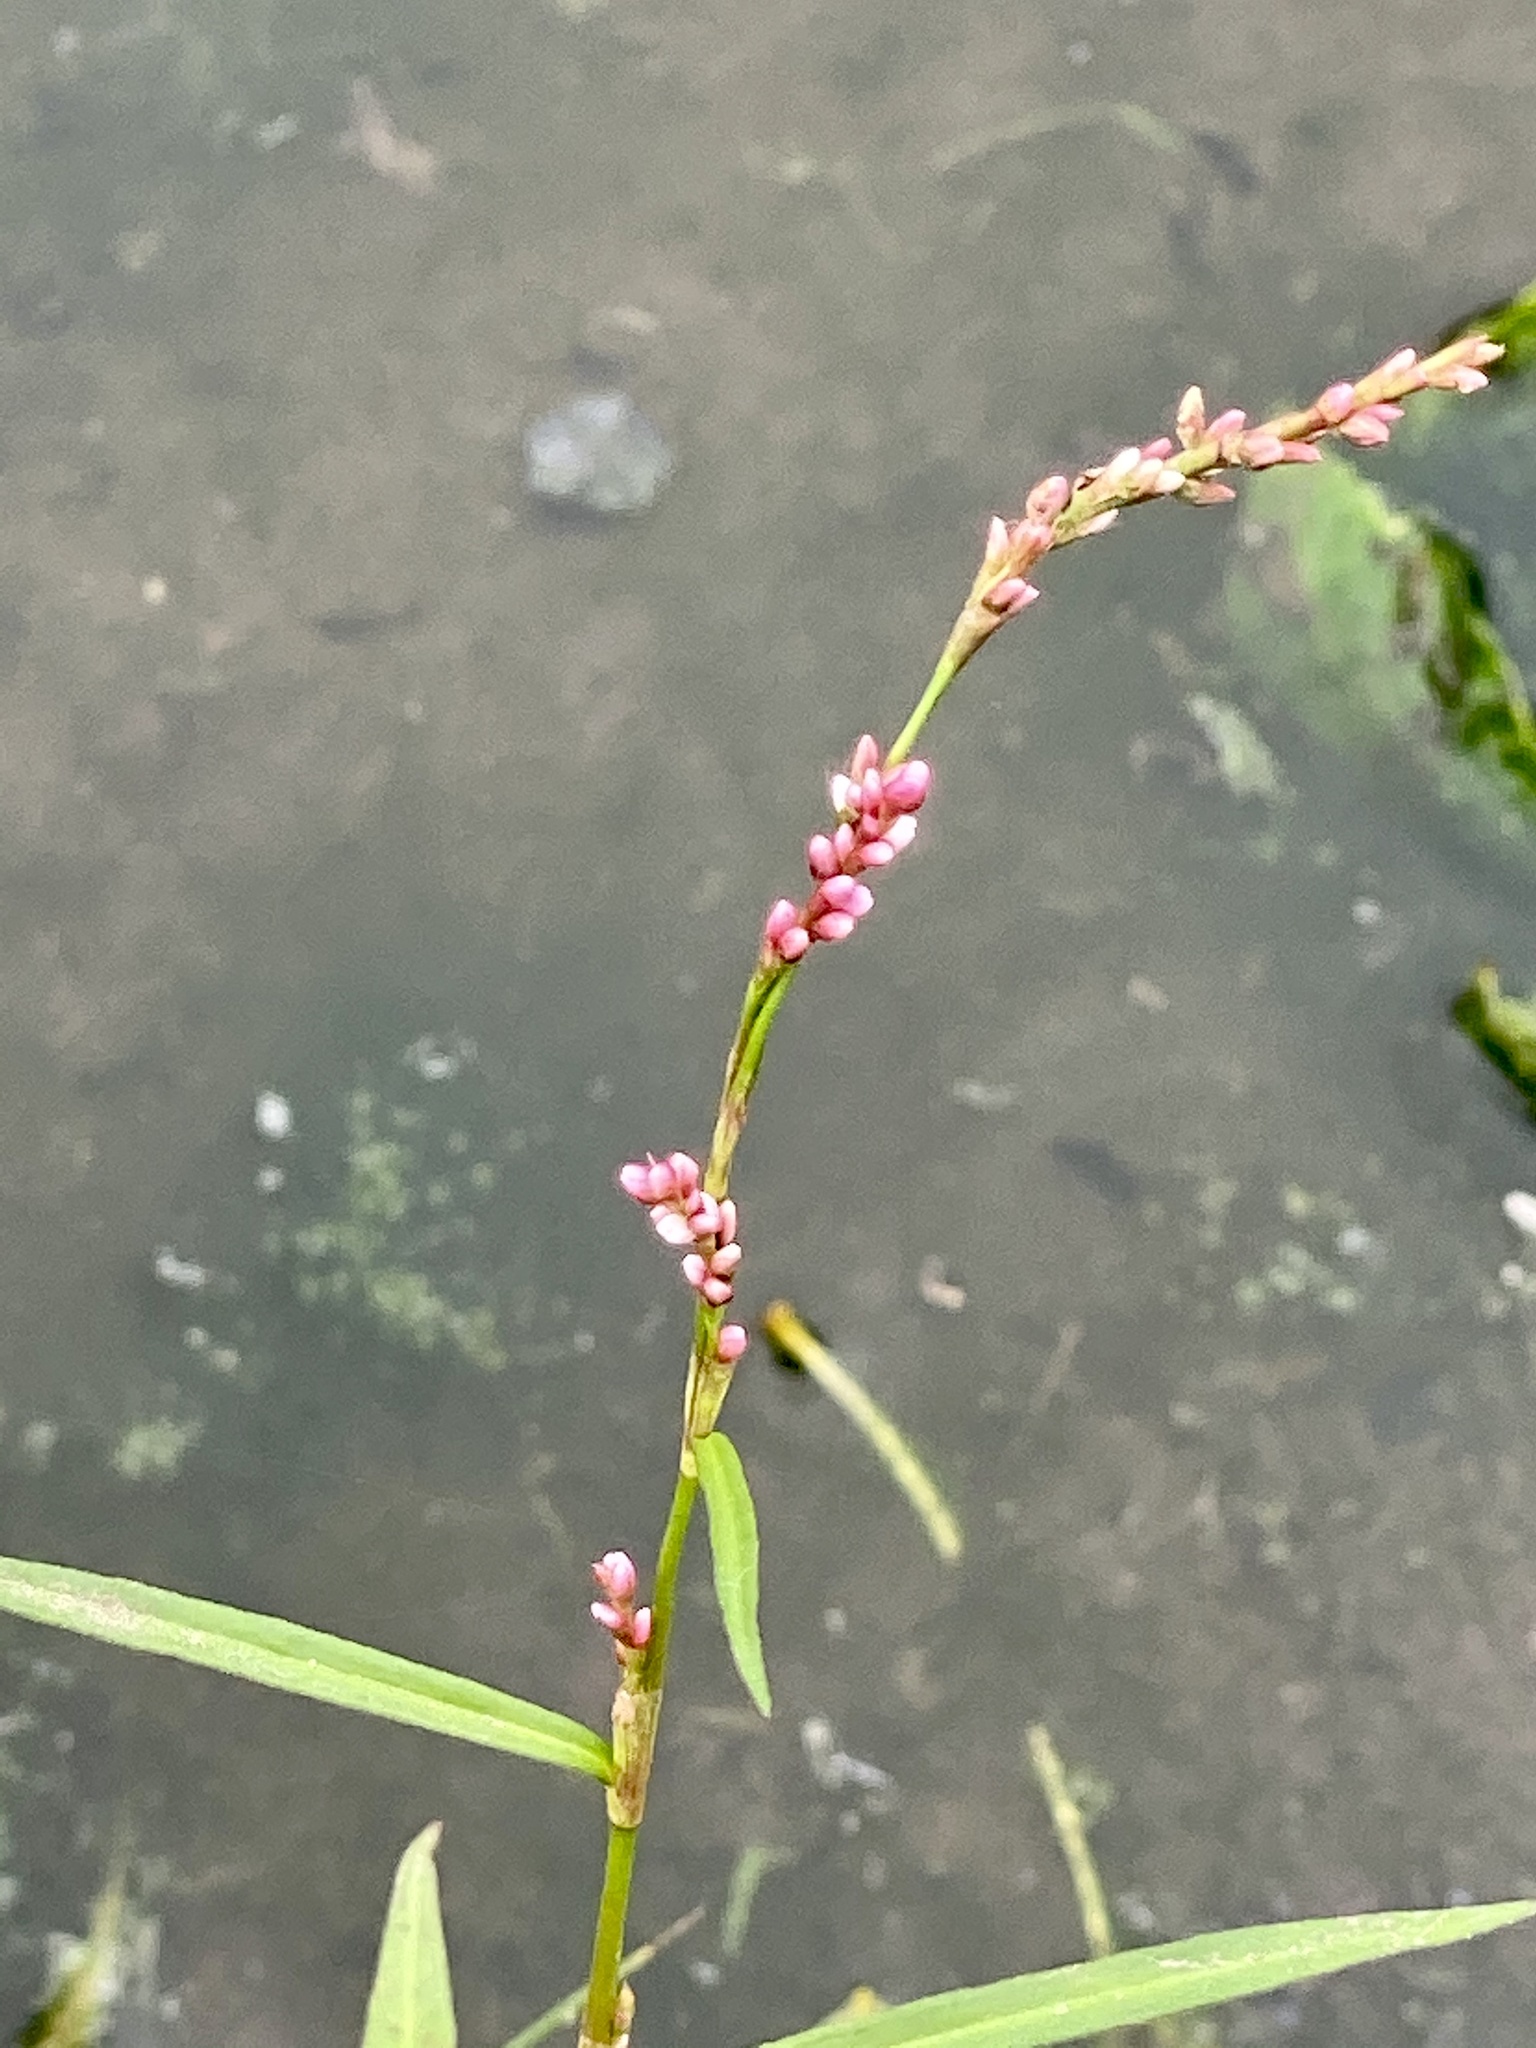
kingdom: Plantae
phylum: Tracheophyta
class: Magnoliopsida
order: Caryophyllales
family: Polygonaceae
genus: Persicaria
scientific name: Persicaria hydropiper
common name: Water-pepper
